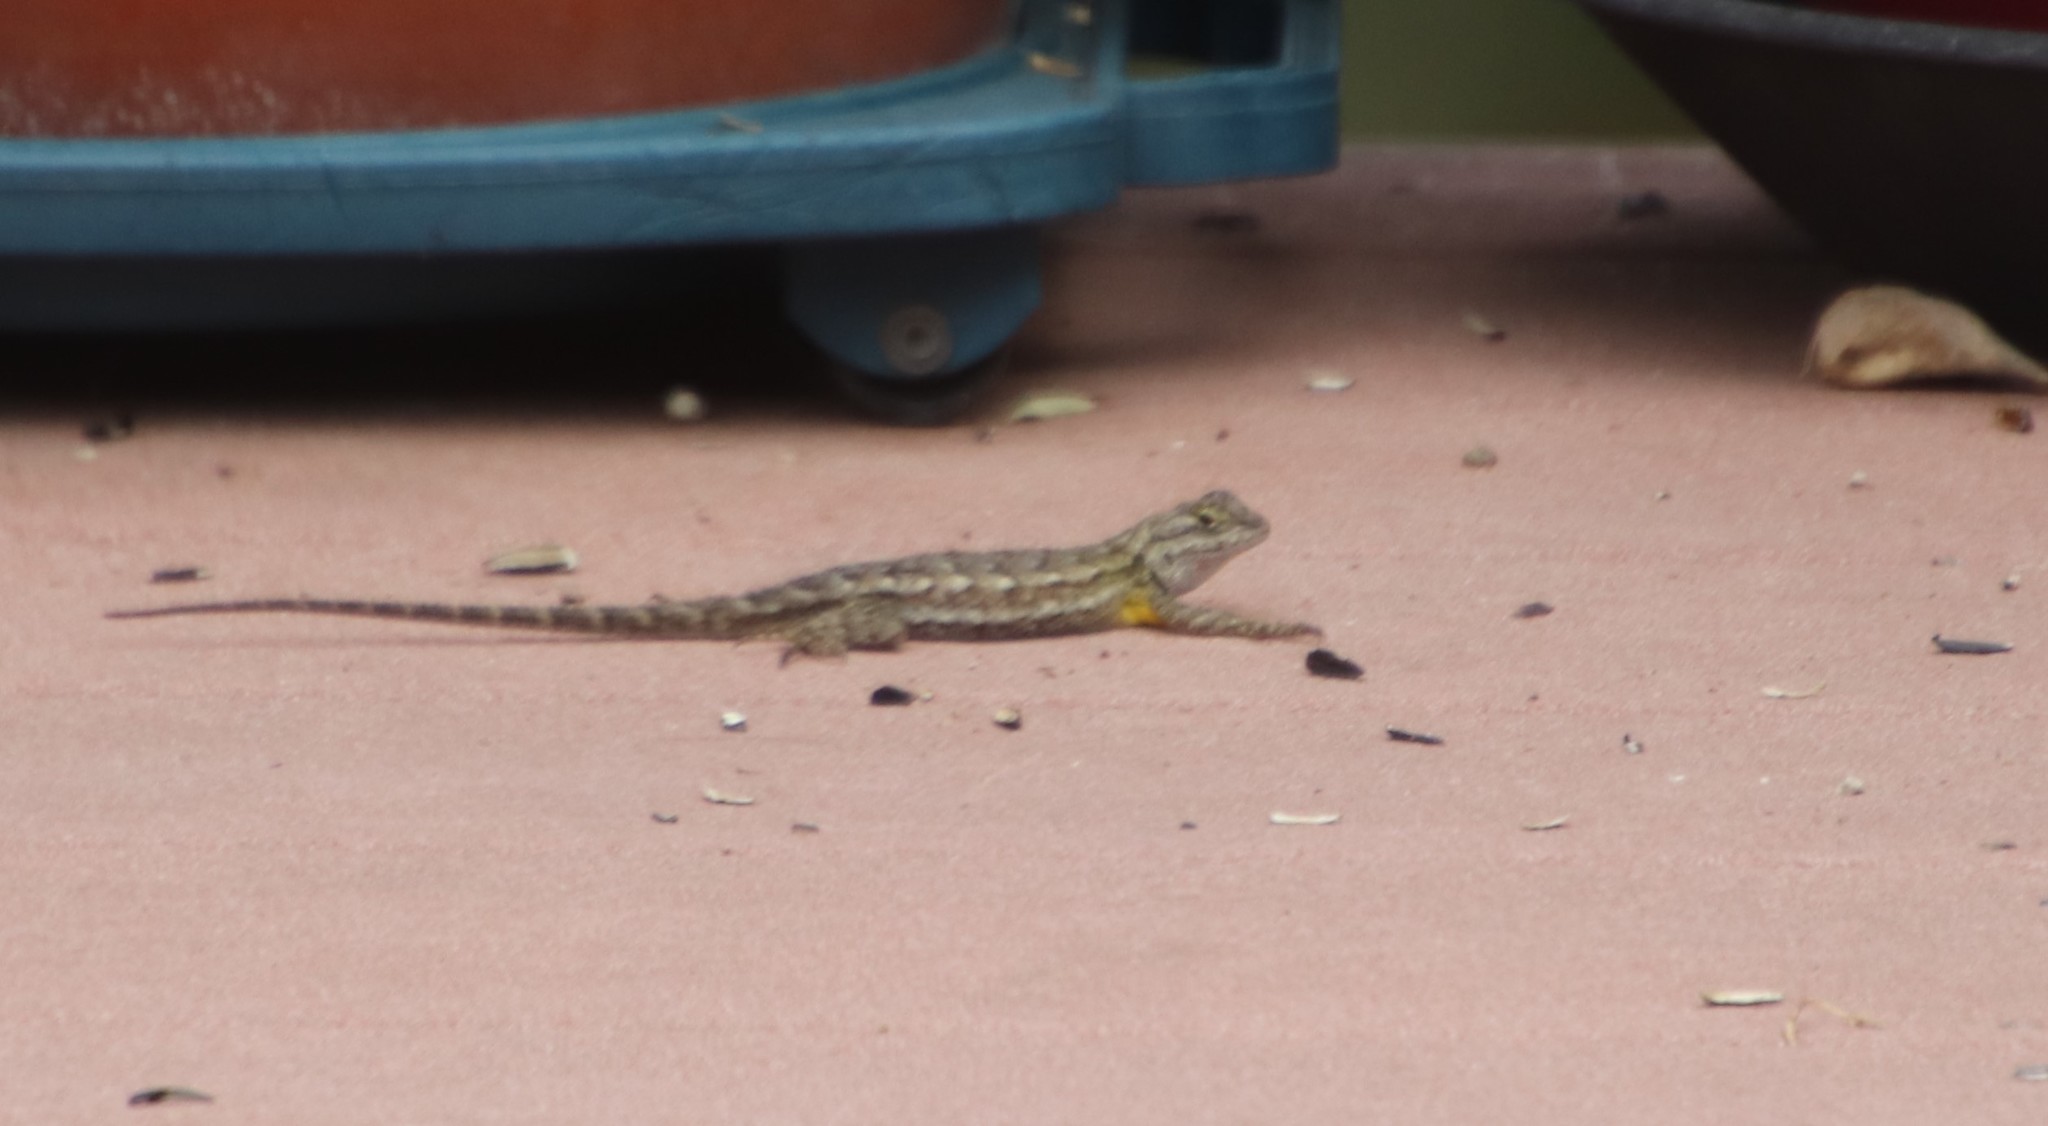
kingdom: Animalia
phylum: Chordata
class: Squamata
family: Phrynosomatidae
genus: Sceloporus
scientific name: Sceloporus occidentalis
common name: Western fence lizard
